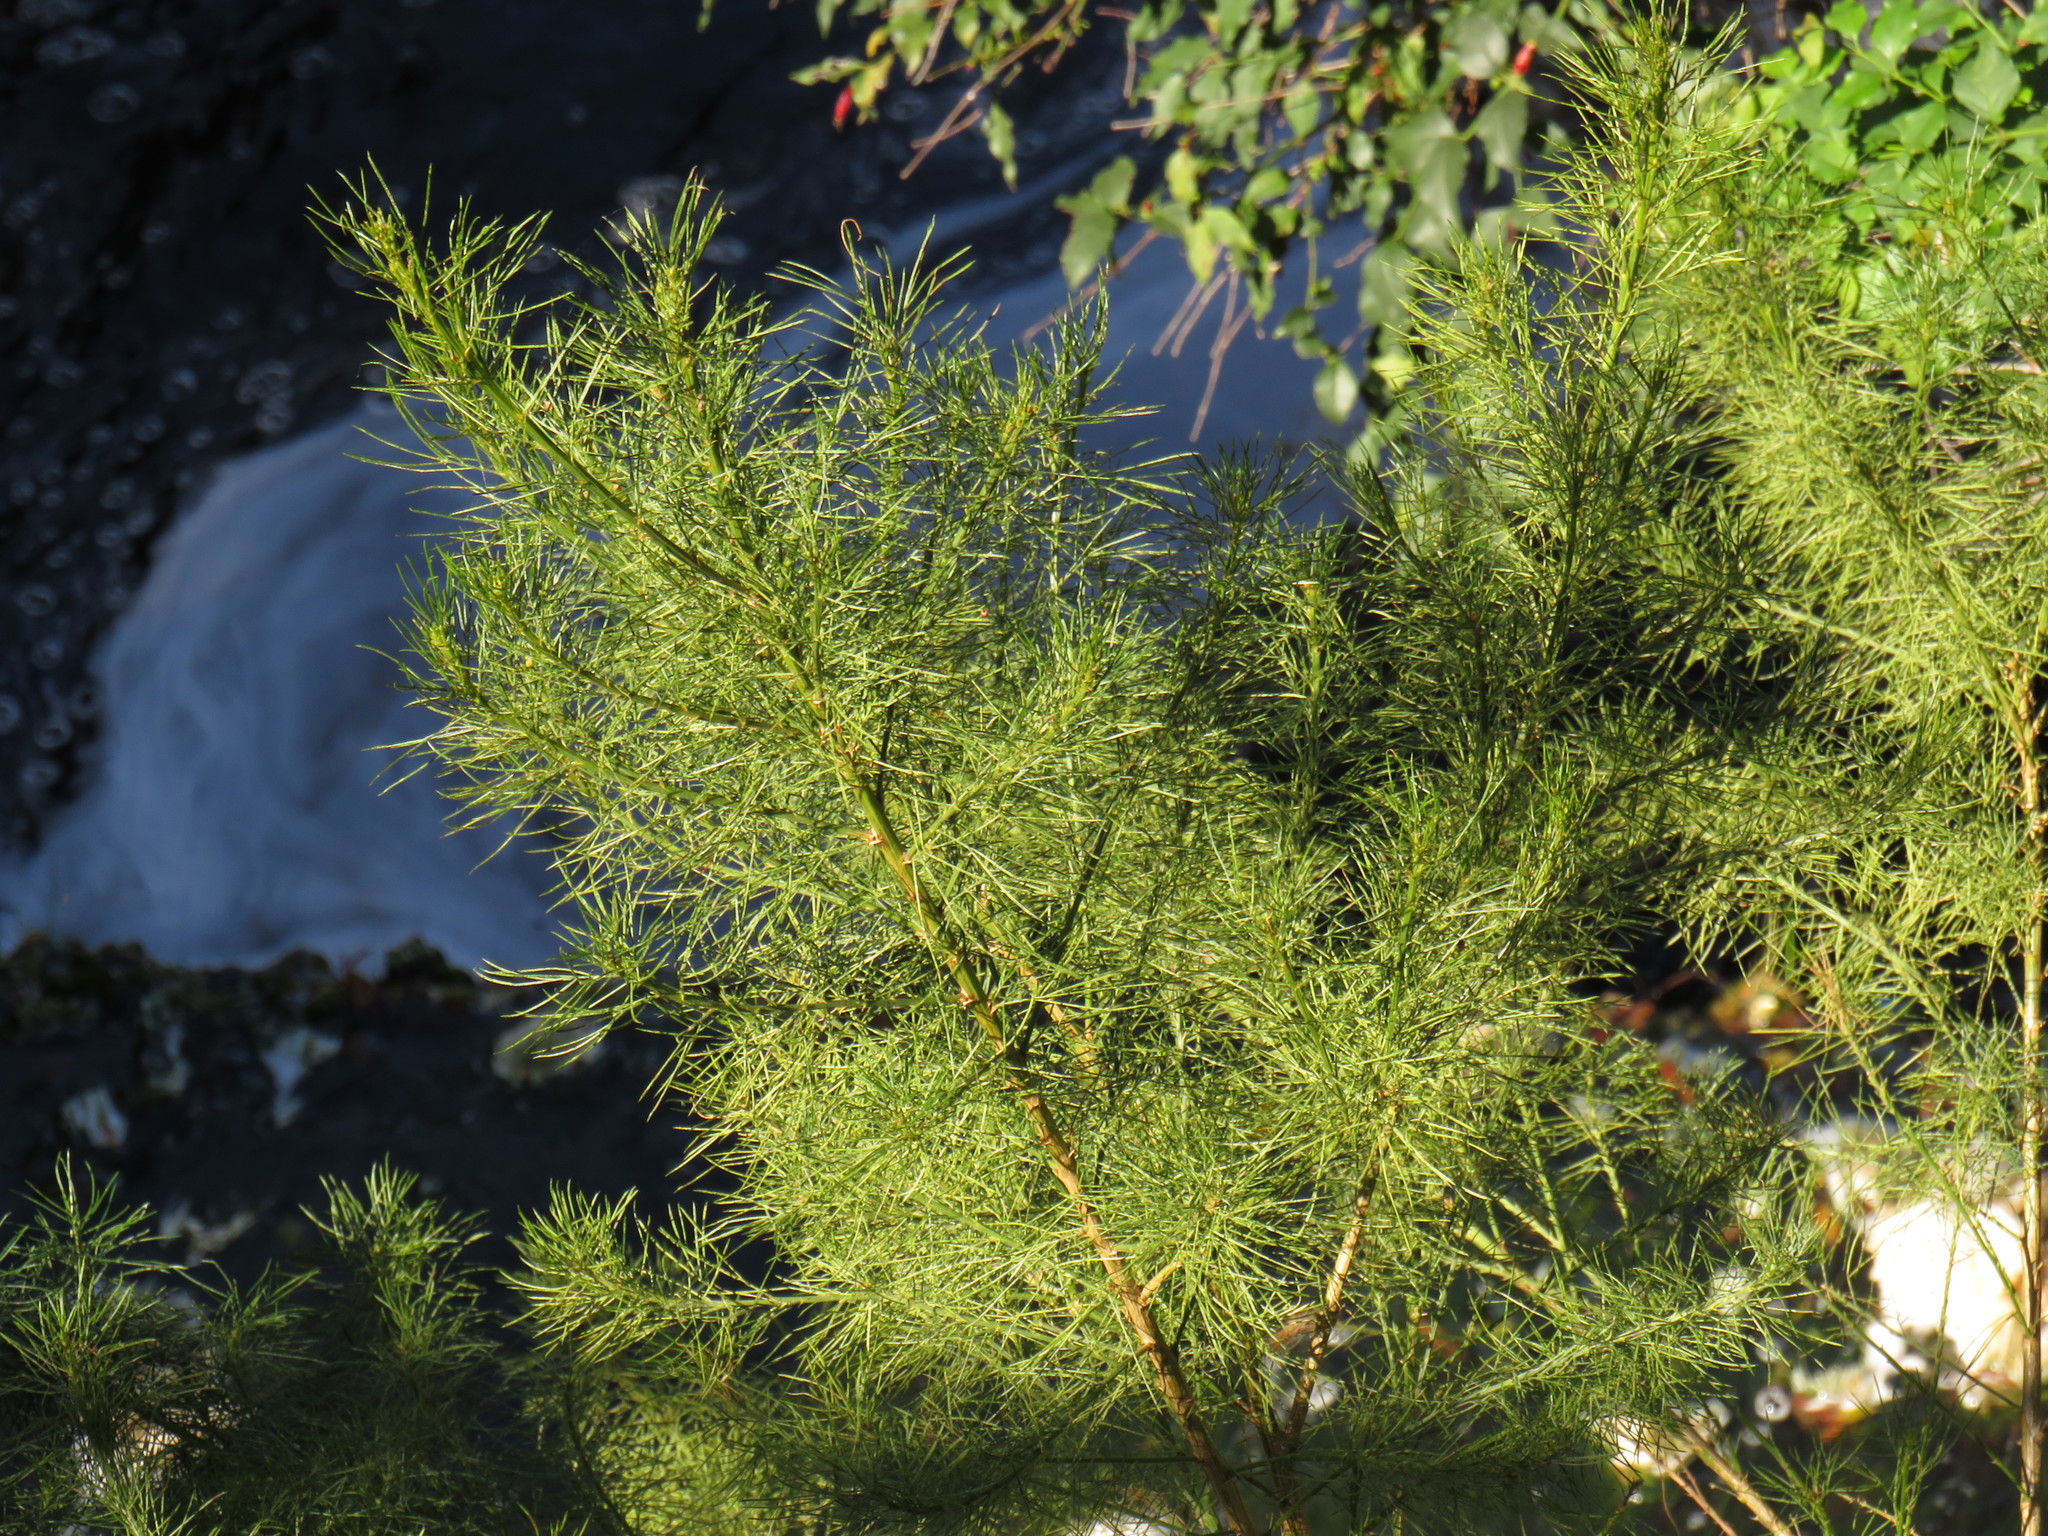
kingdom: Plantae
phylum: Tracheophyta
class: Magnoliopsida
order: Fabales
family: Fabaceae
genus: Psoralea
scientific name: Psoralea pinnata
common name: African scurfpea
